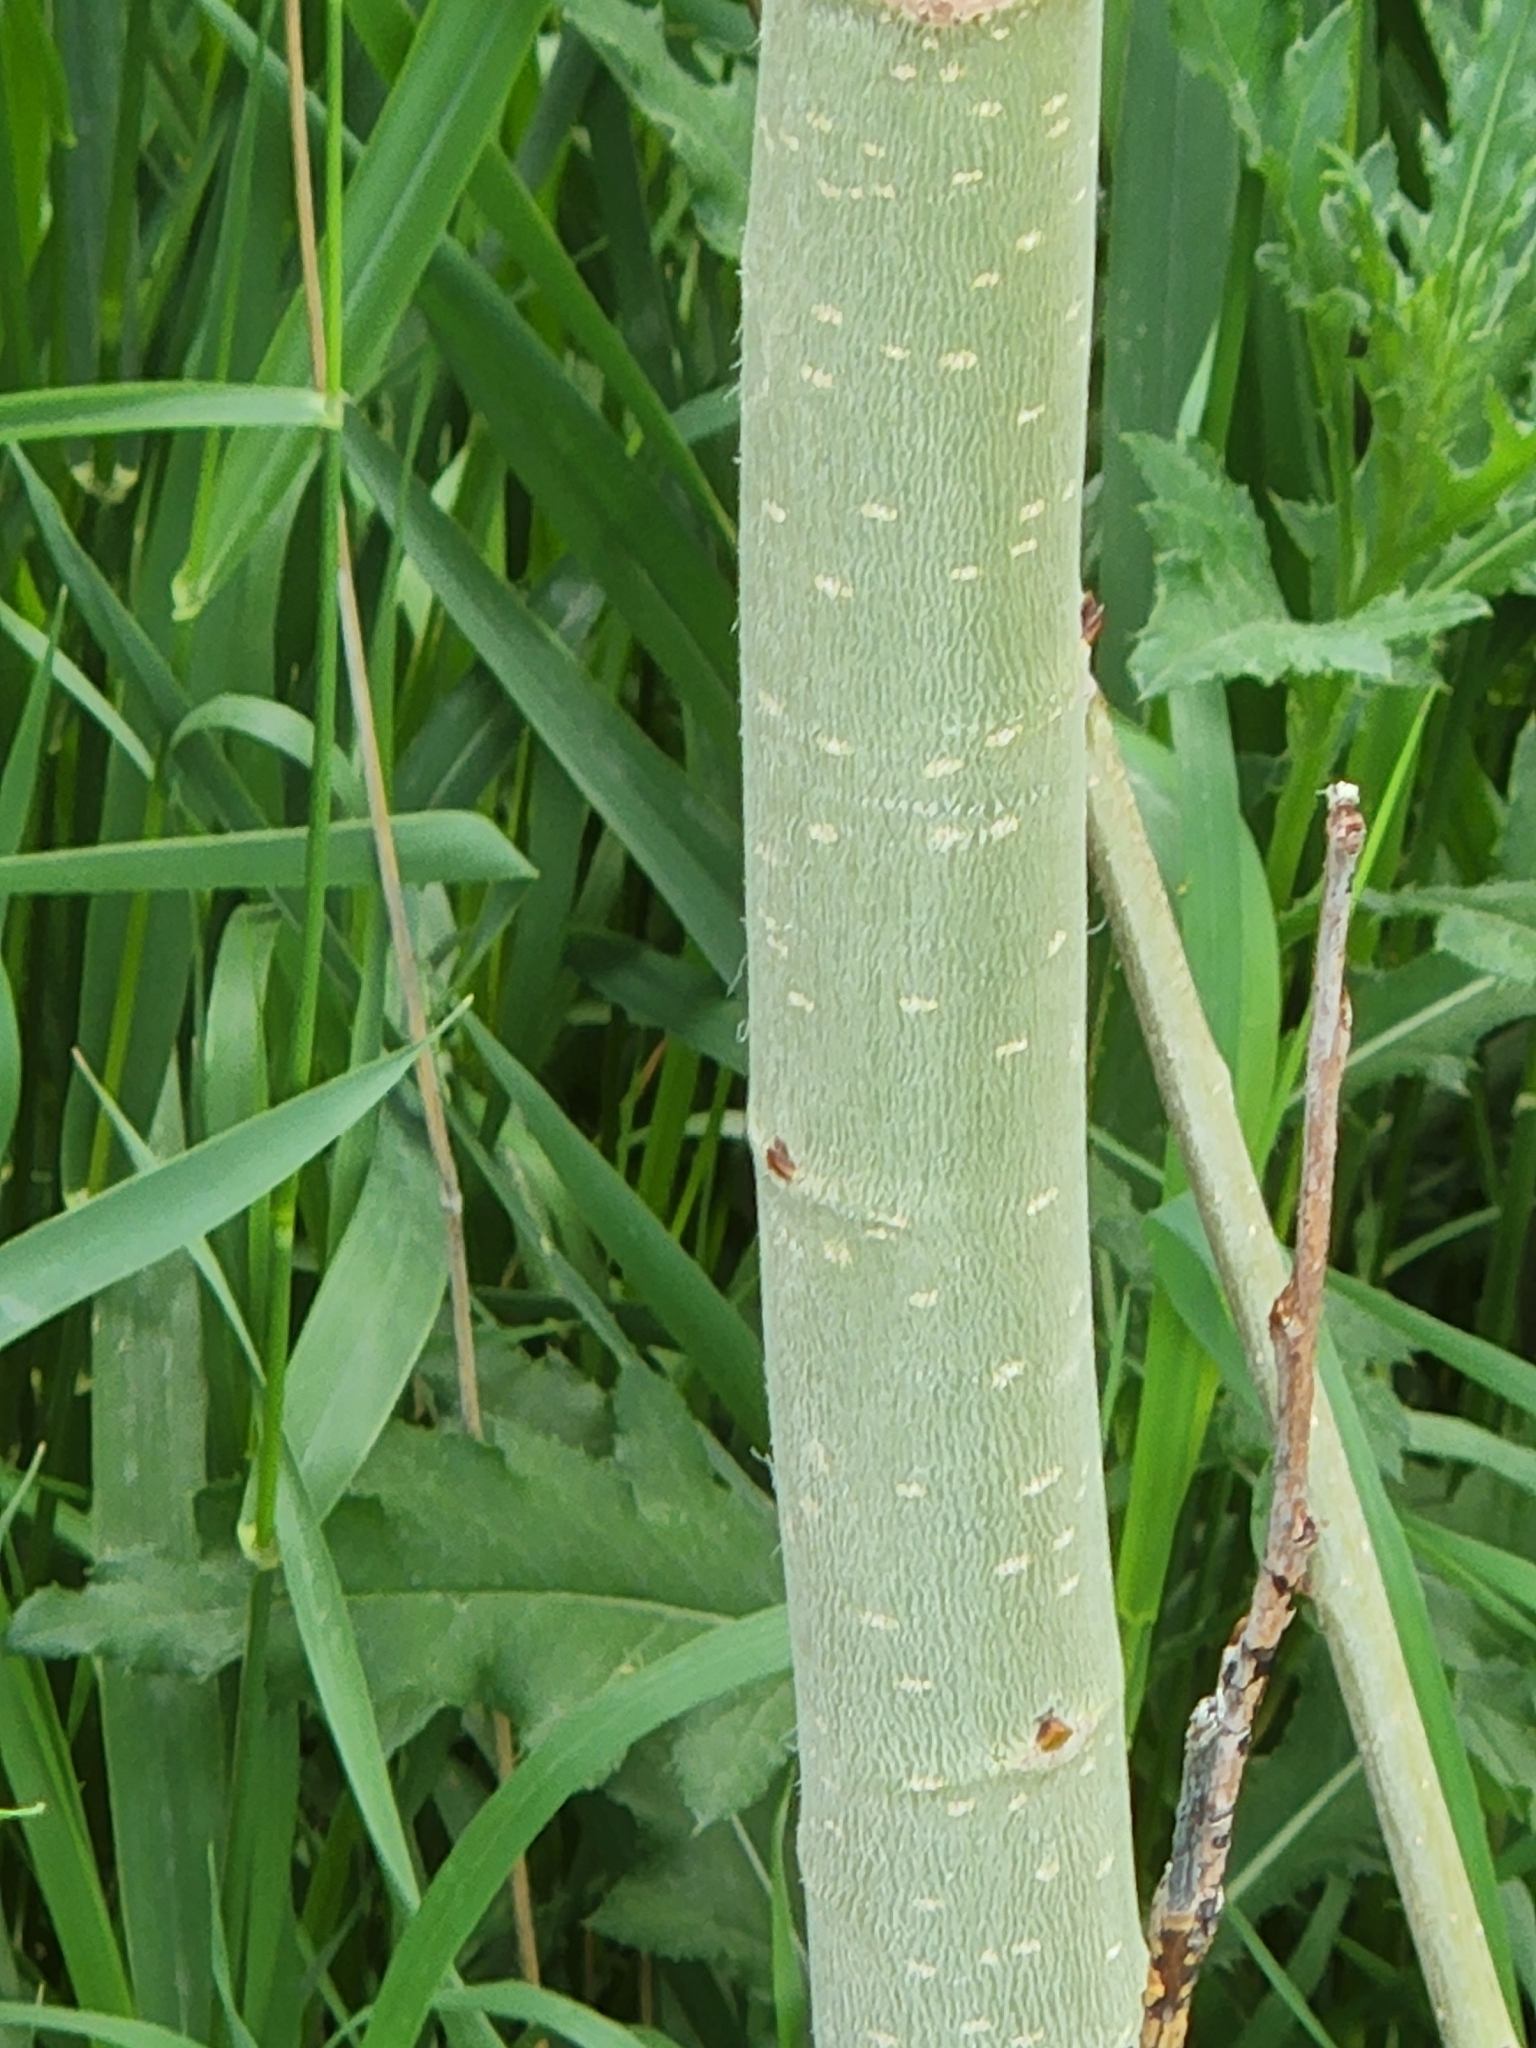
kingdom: Plantae
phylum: Tracheophyta
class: Magnoliopsida
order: Malpighiales
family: Salicaceae
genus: Populus
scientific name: Populus tremuloides
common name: Quaking aspen
